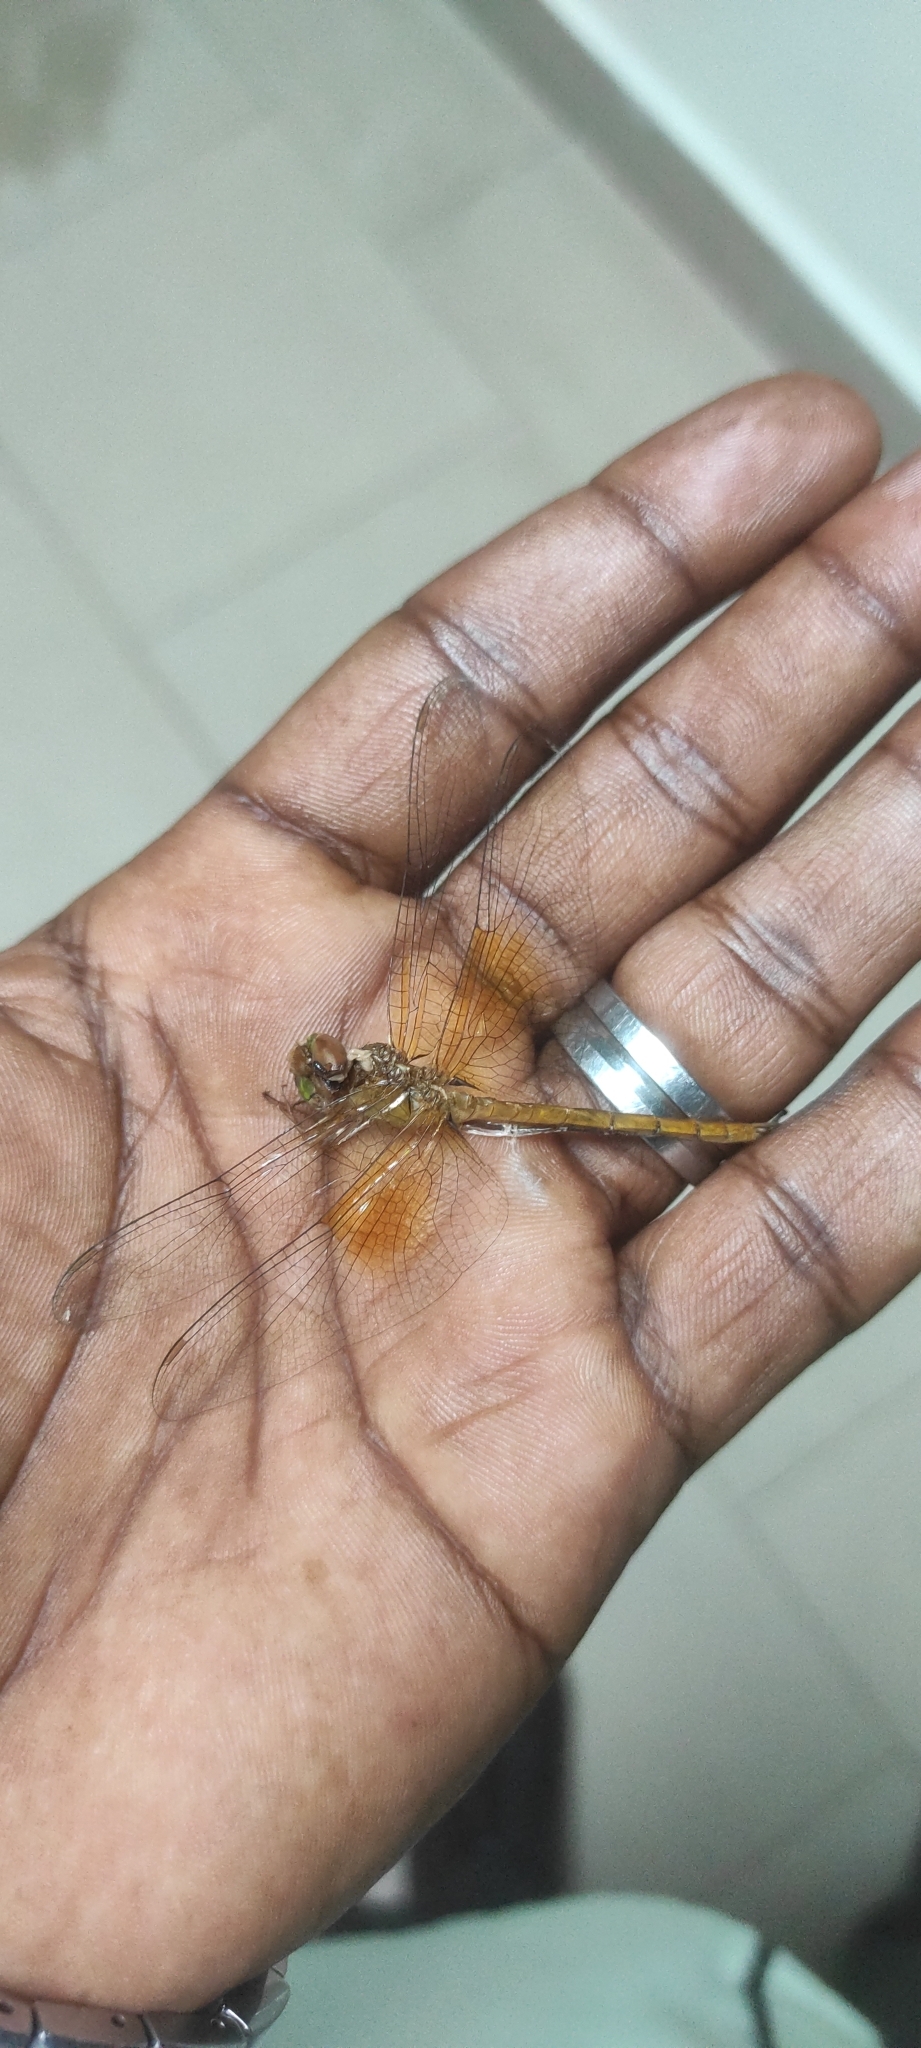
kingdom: Animalia
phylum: Arthropoda
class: Insecta
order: Odonata
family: Libellulidae
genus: Tholymis
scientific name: Tholymis tillarga
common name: Coral-tailed cloud wing
